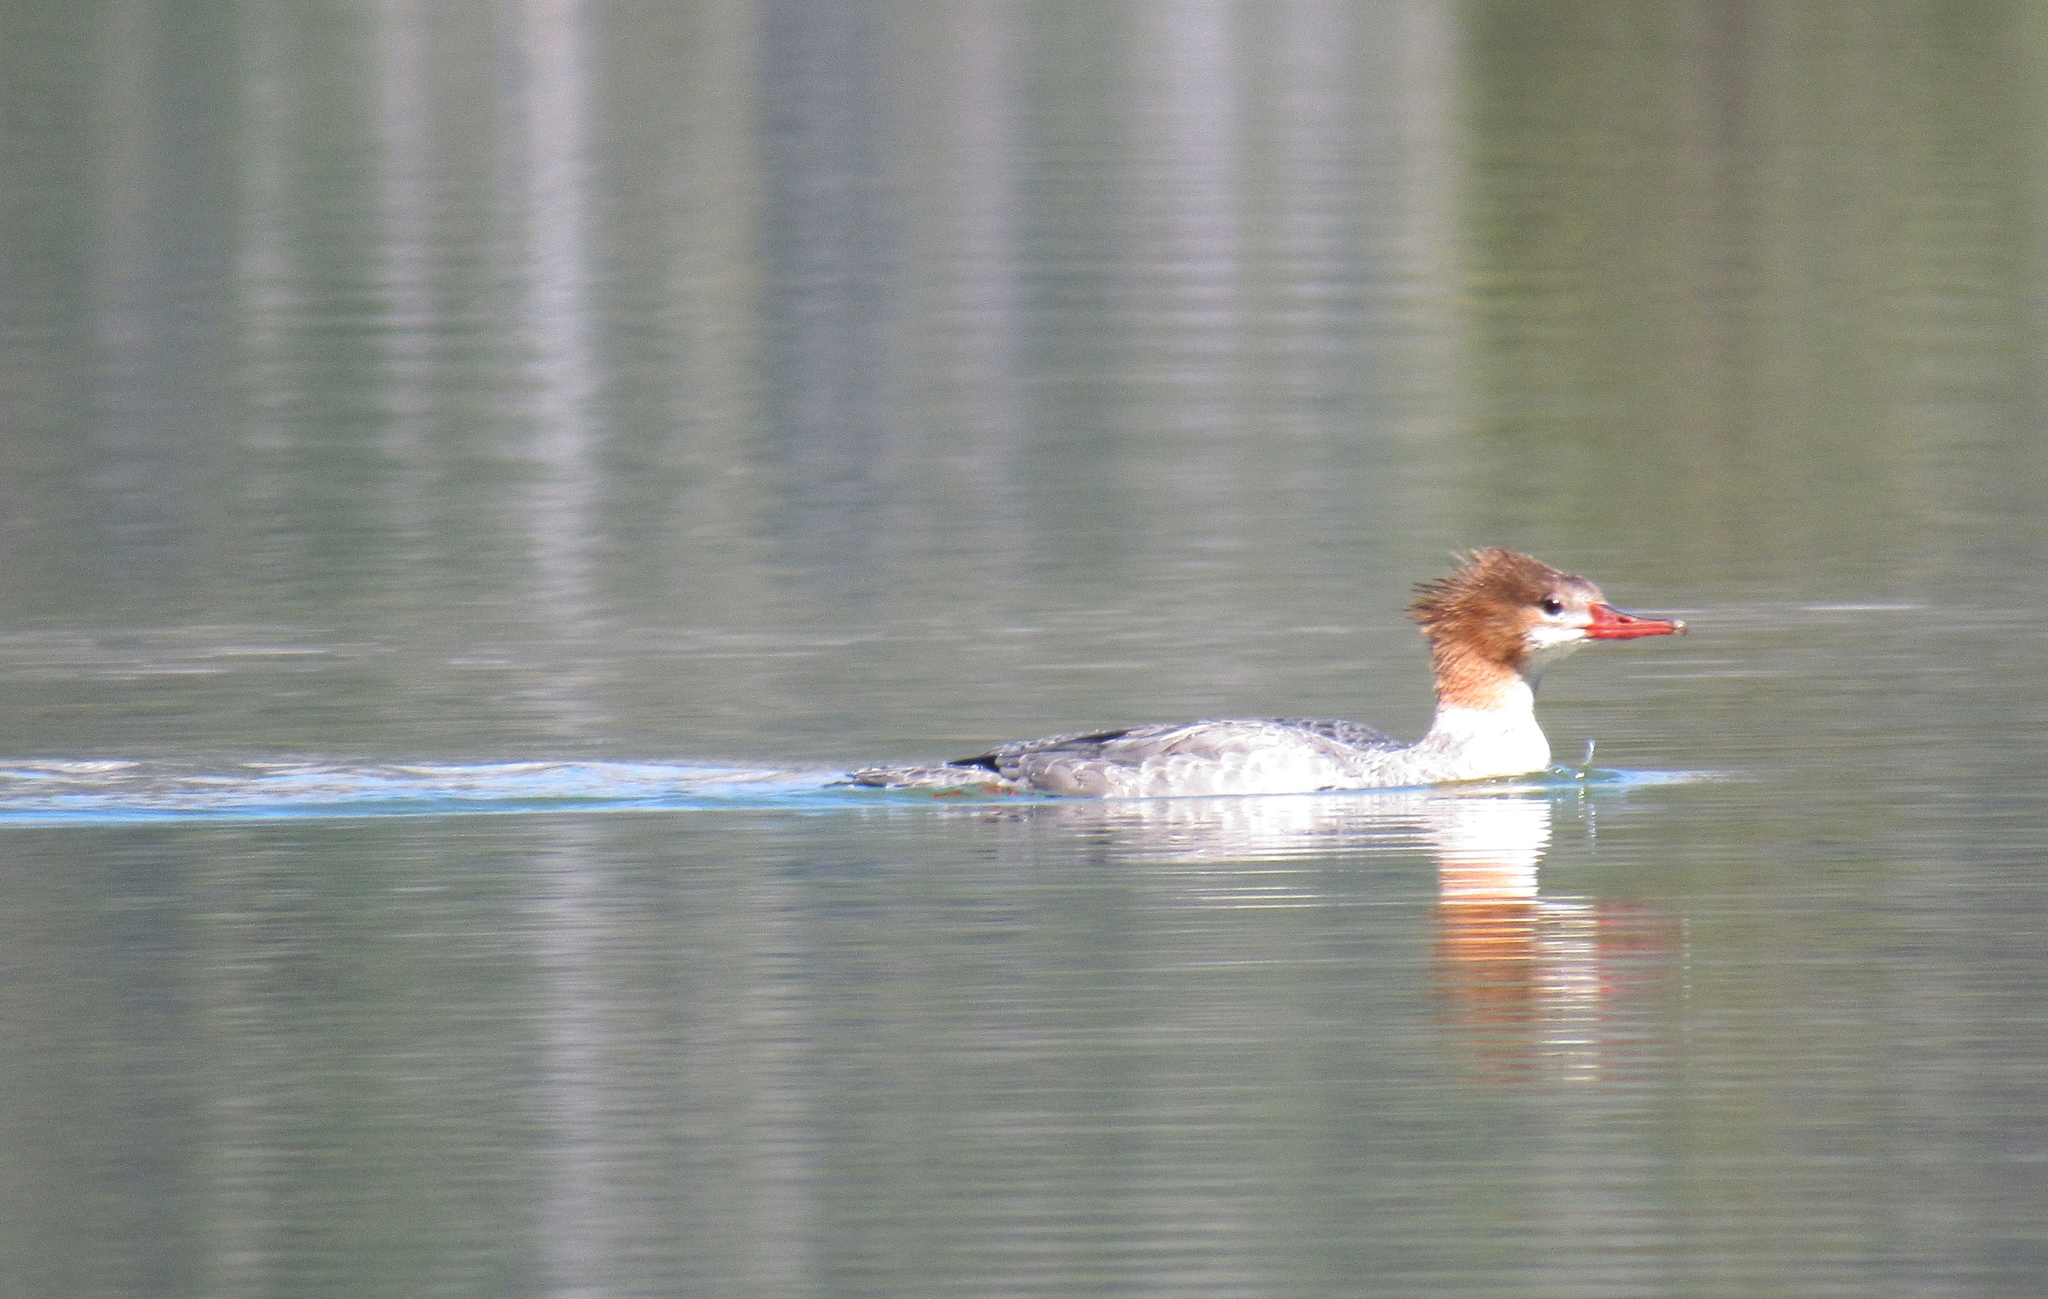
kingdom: Animalia
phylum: Chordata
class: Aves
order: Anseriformes
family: Anatidae
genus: Mergus
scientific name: Mergus merganser
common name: Common merganser
